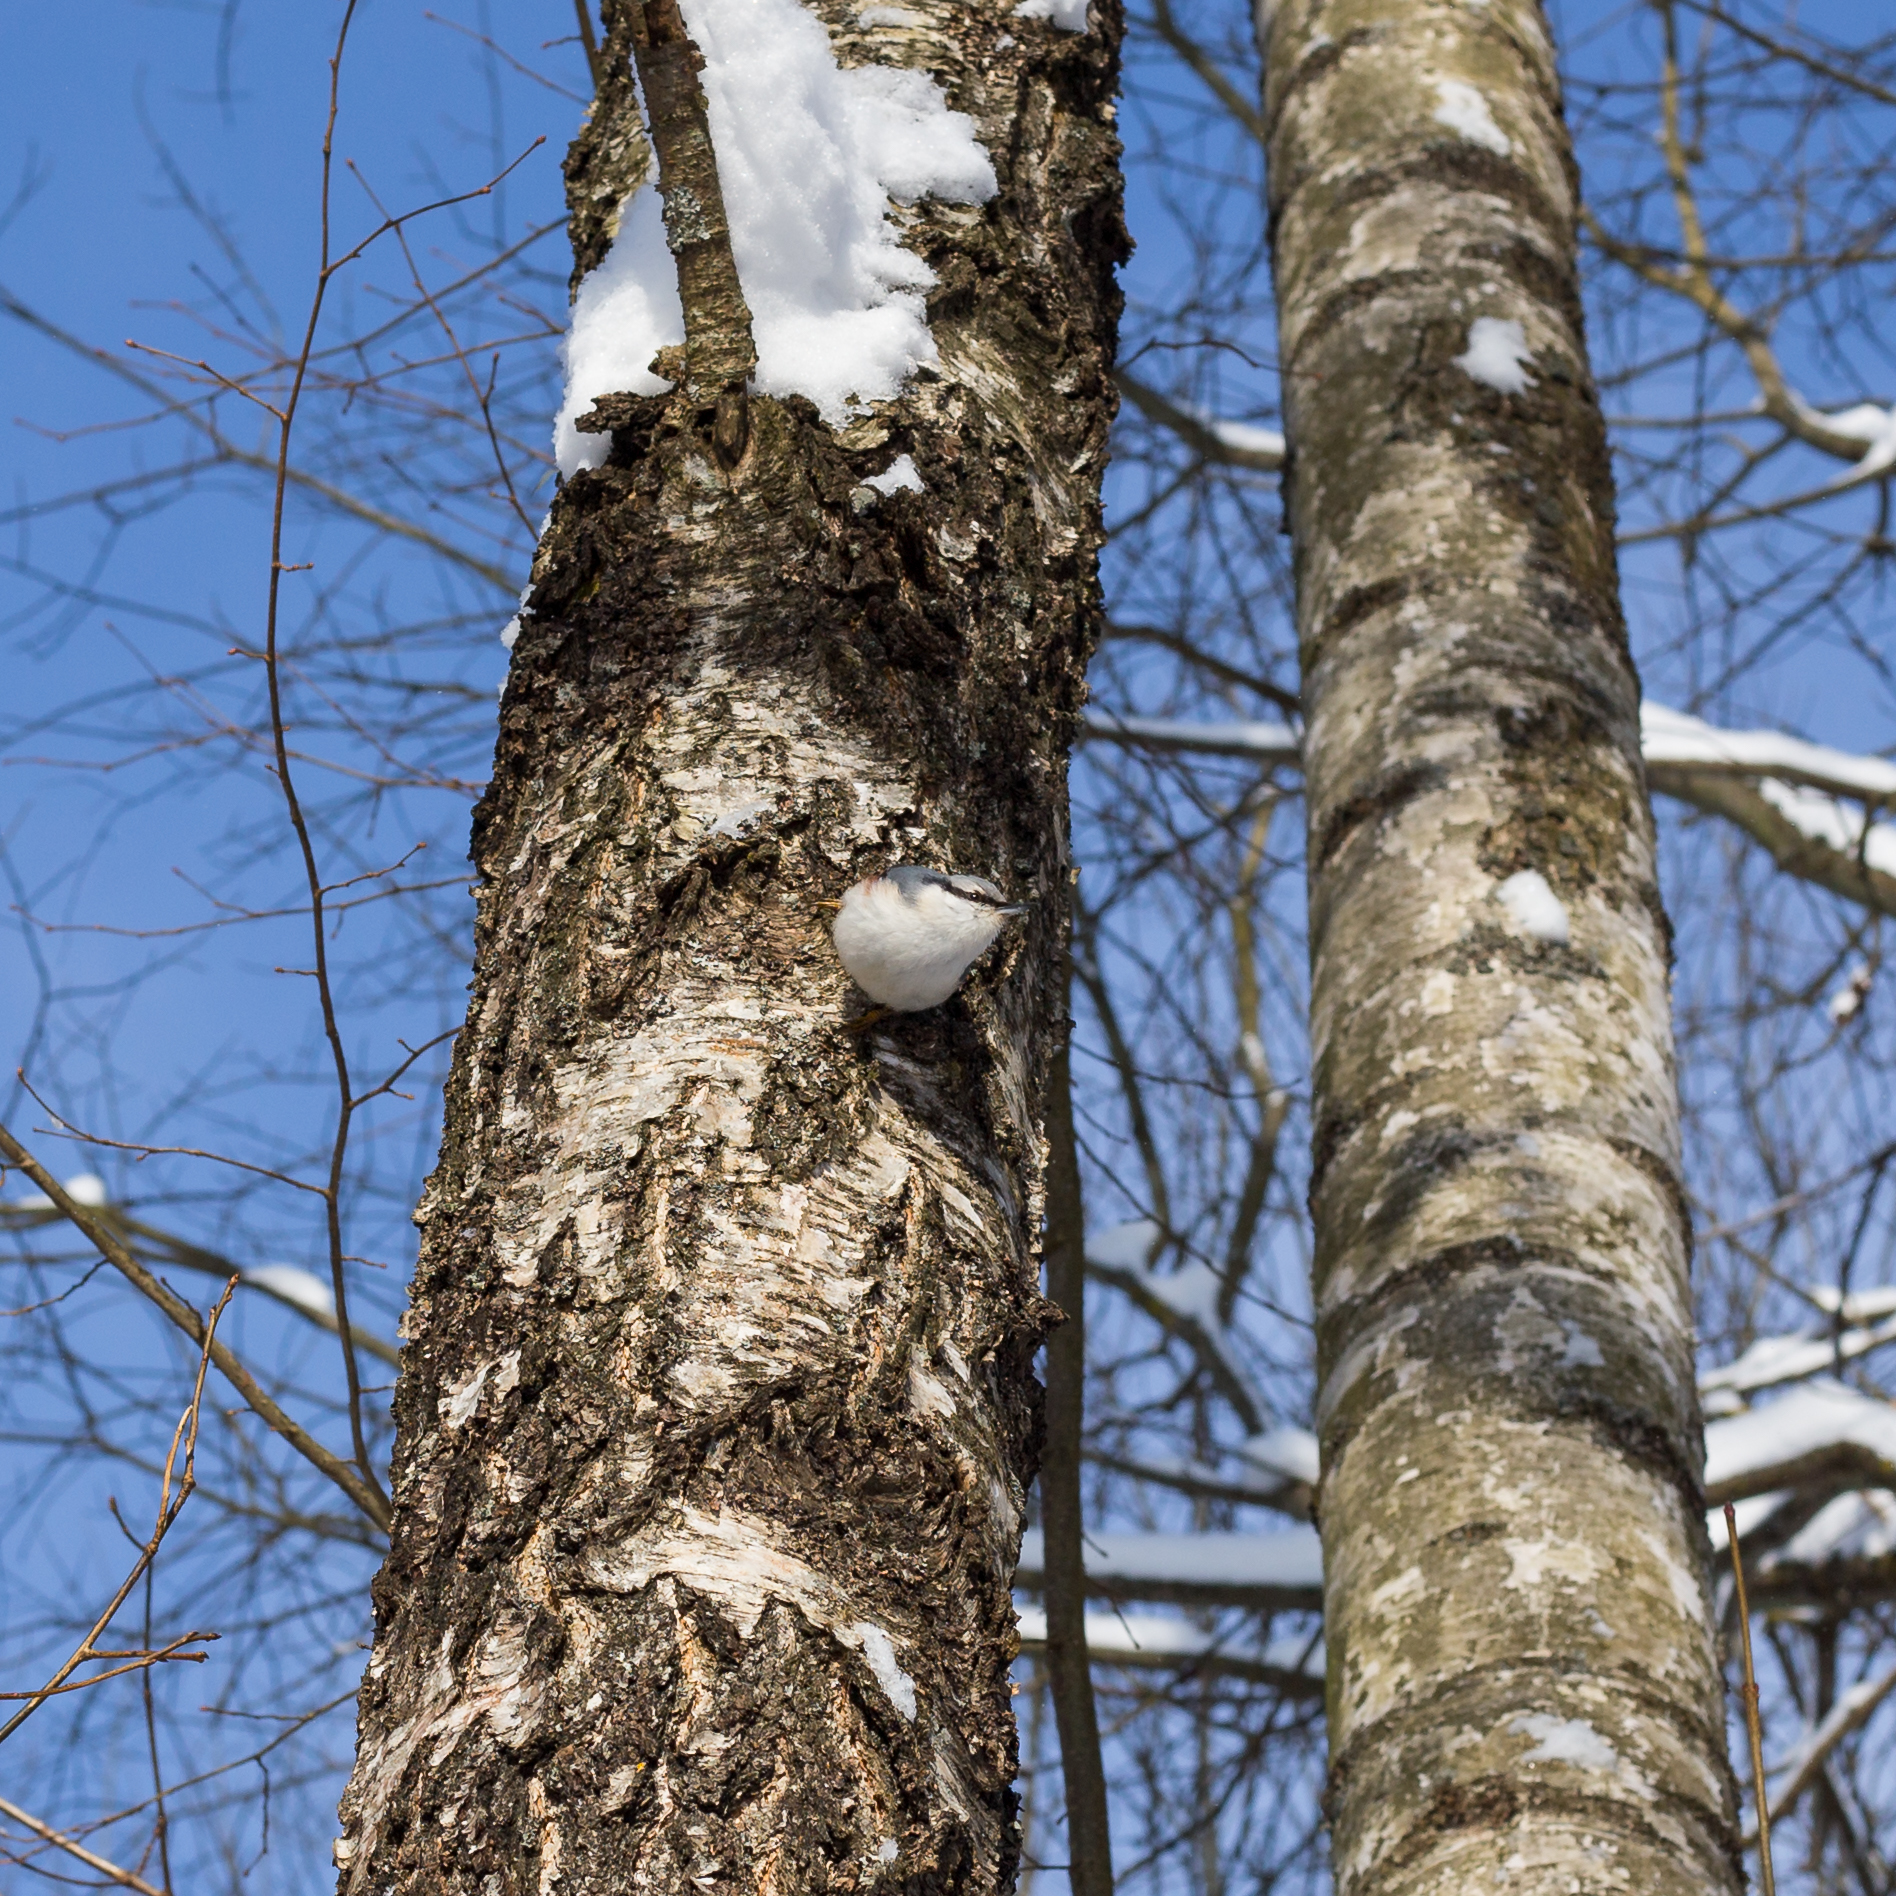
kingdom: Animalia
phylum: Chordata
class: Aves
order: Passeriformes
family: Sittidae
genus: Sitta
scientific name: Sitta europaea
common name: Eurasian nuthatch
